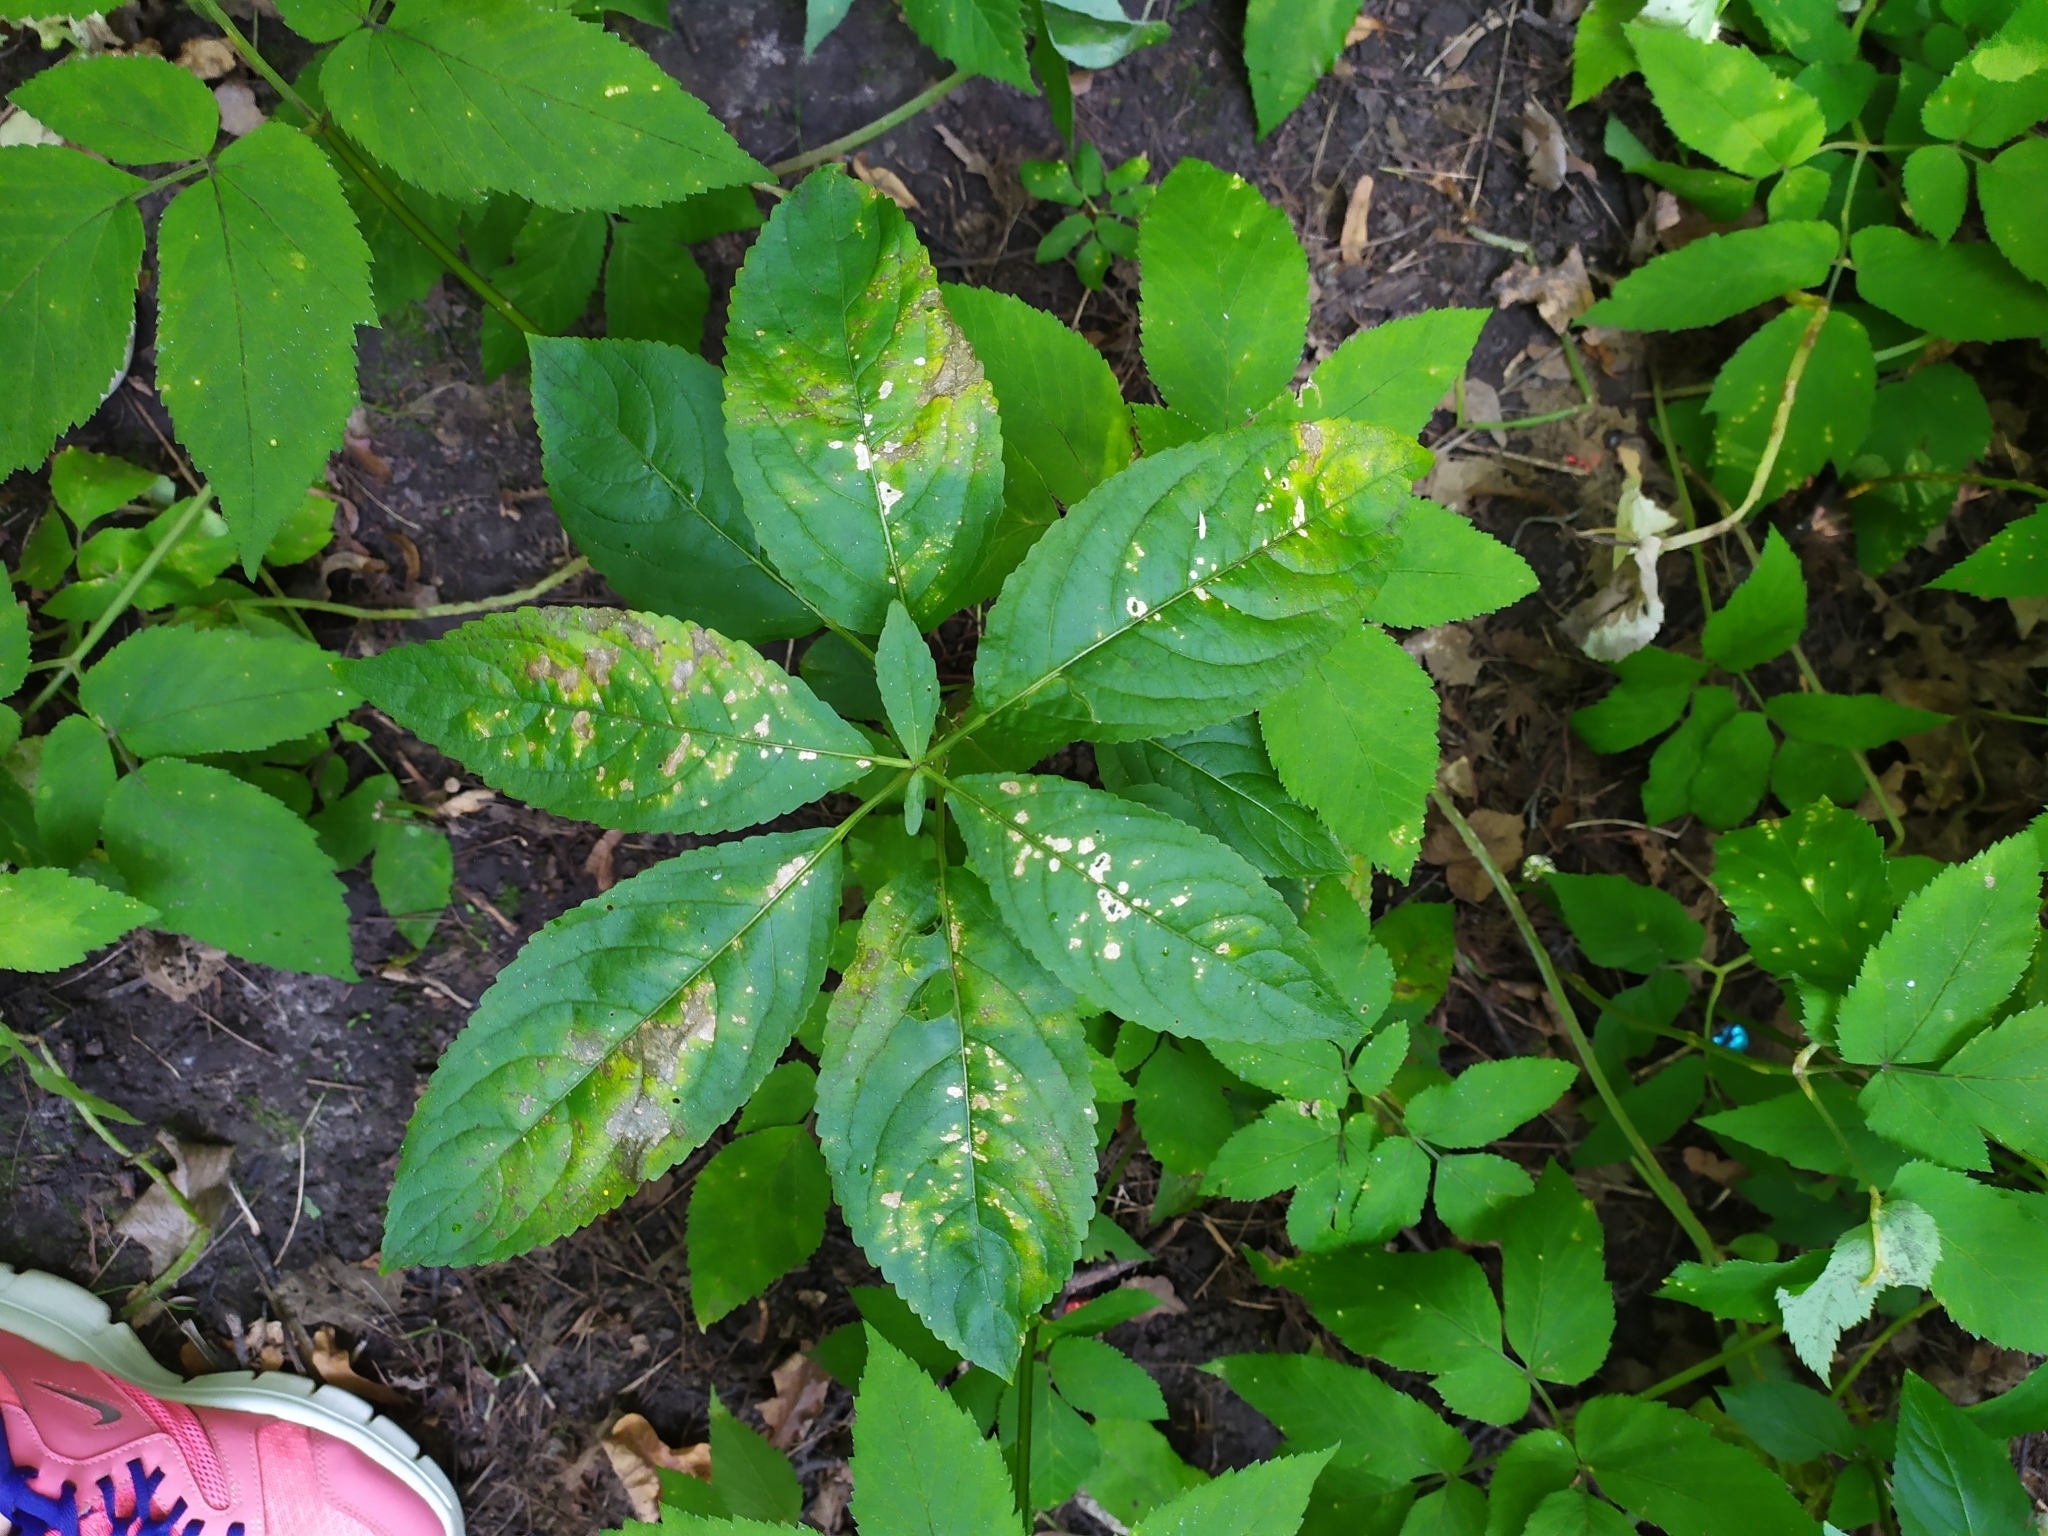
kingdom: Plantae
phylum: Tracheophyta
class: Magnoliopsida
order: Malpighiales
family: Euphorbiaceae
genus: Mercurialis
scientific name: Mercurialis perennis
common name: Dog mercury
